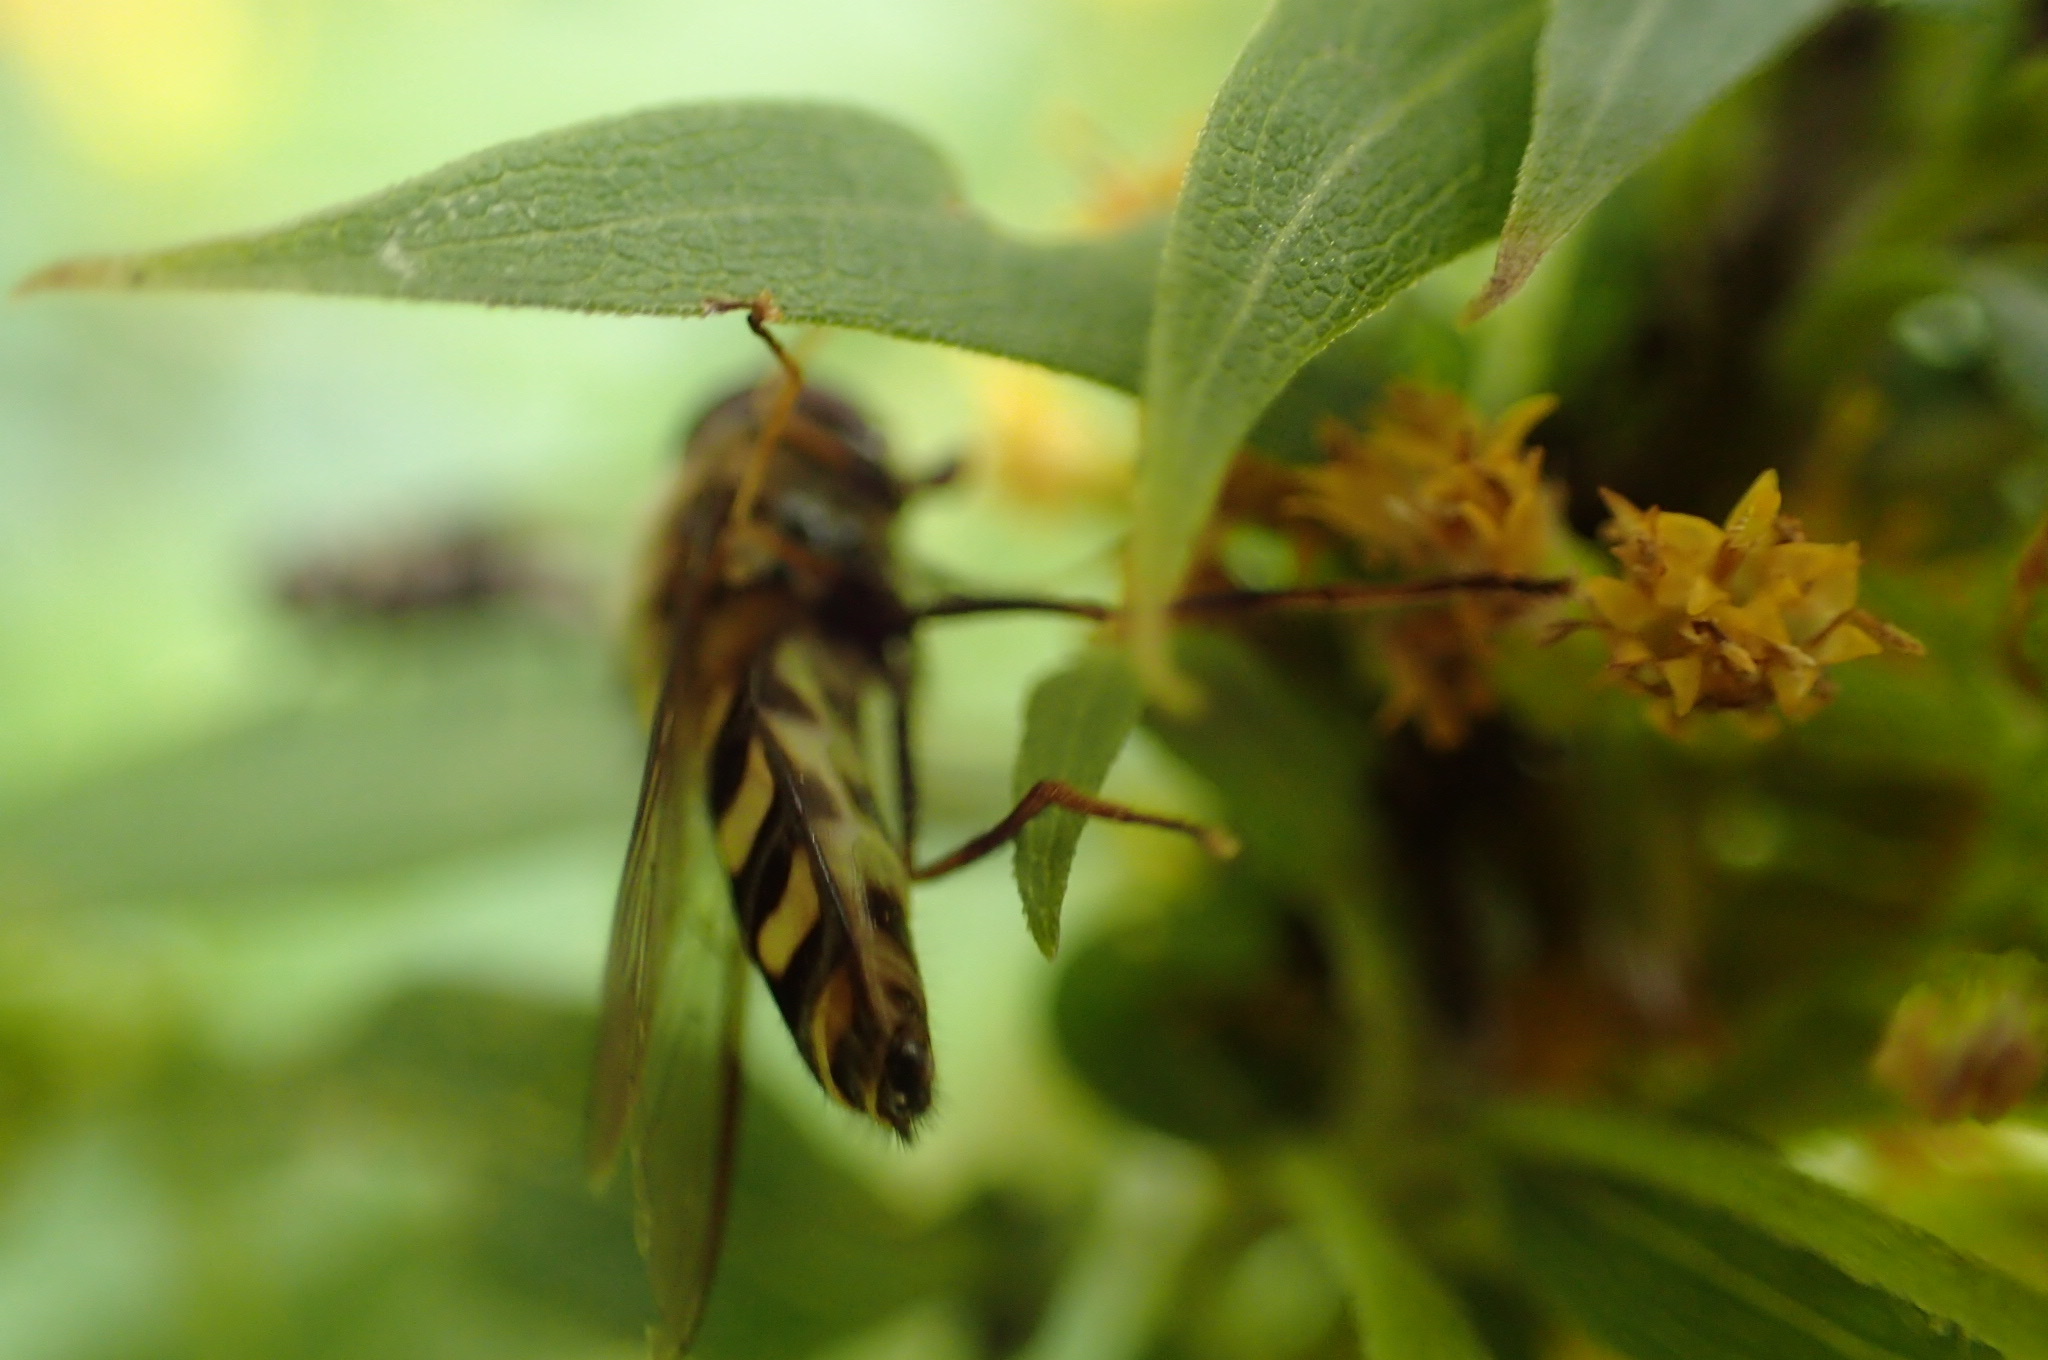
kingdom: Animalia
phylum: Arthropoda
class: Insecta
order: Diptera
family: Syrphidae
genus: Lapposyrphus
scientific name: Lapposyrphus lapponicus
